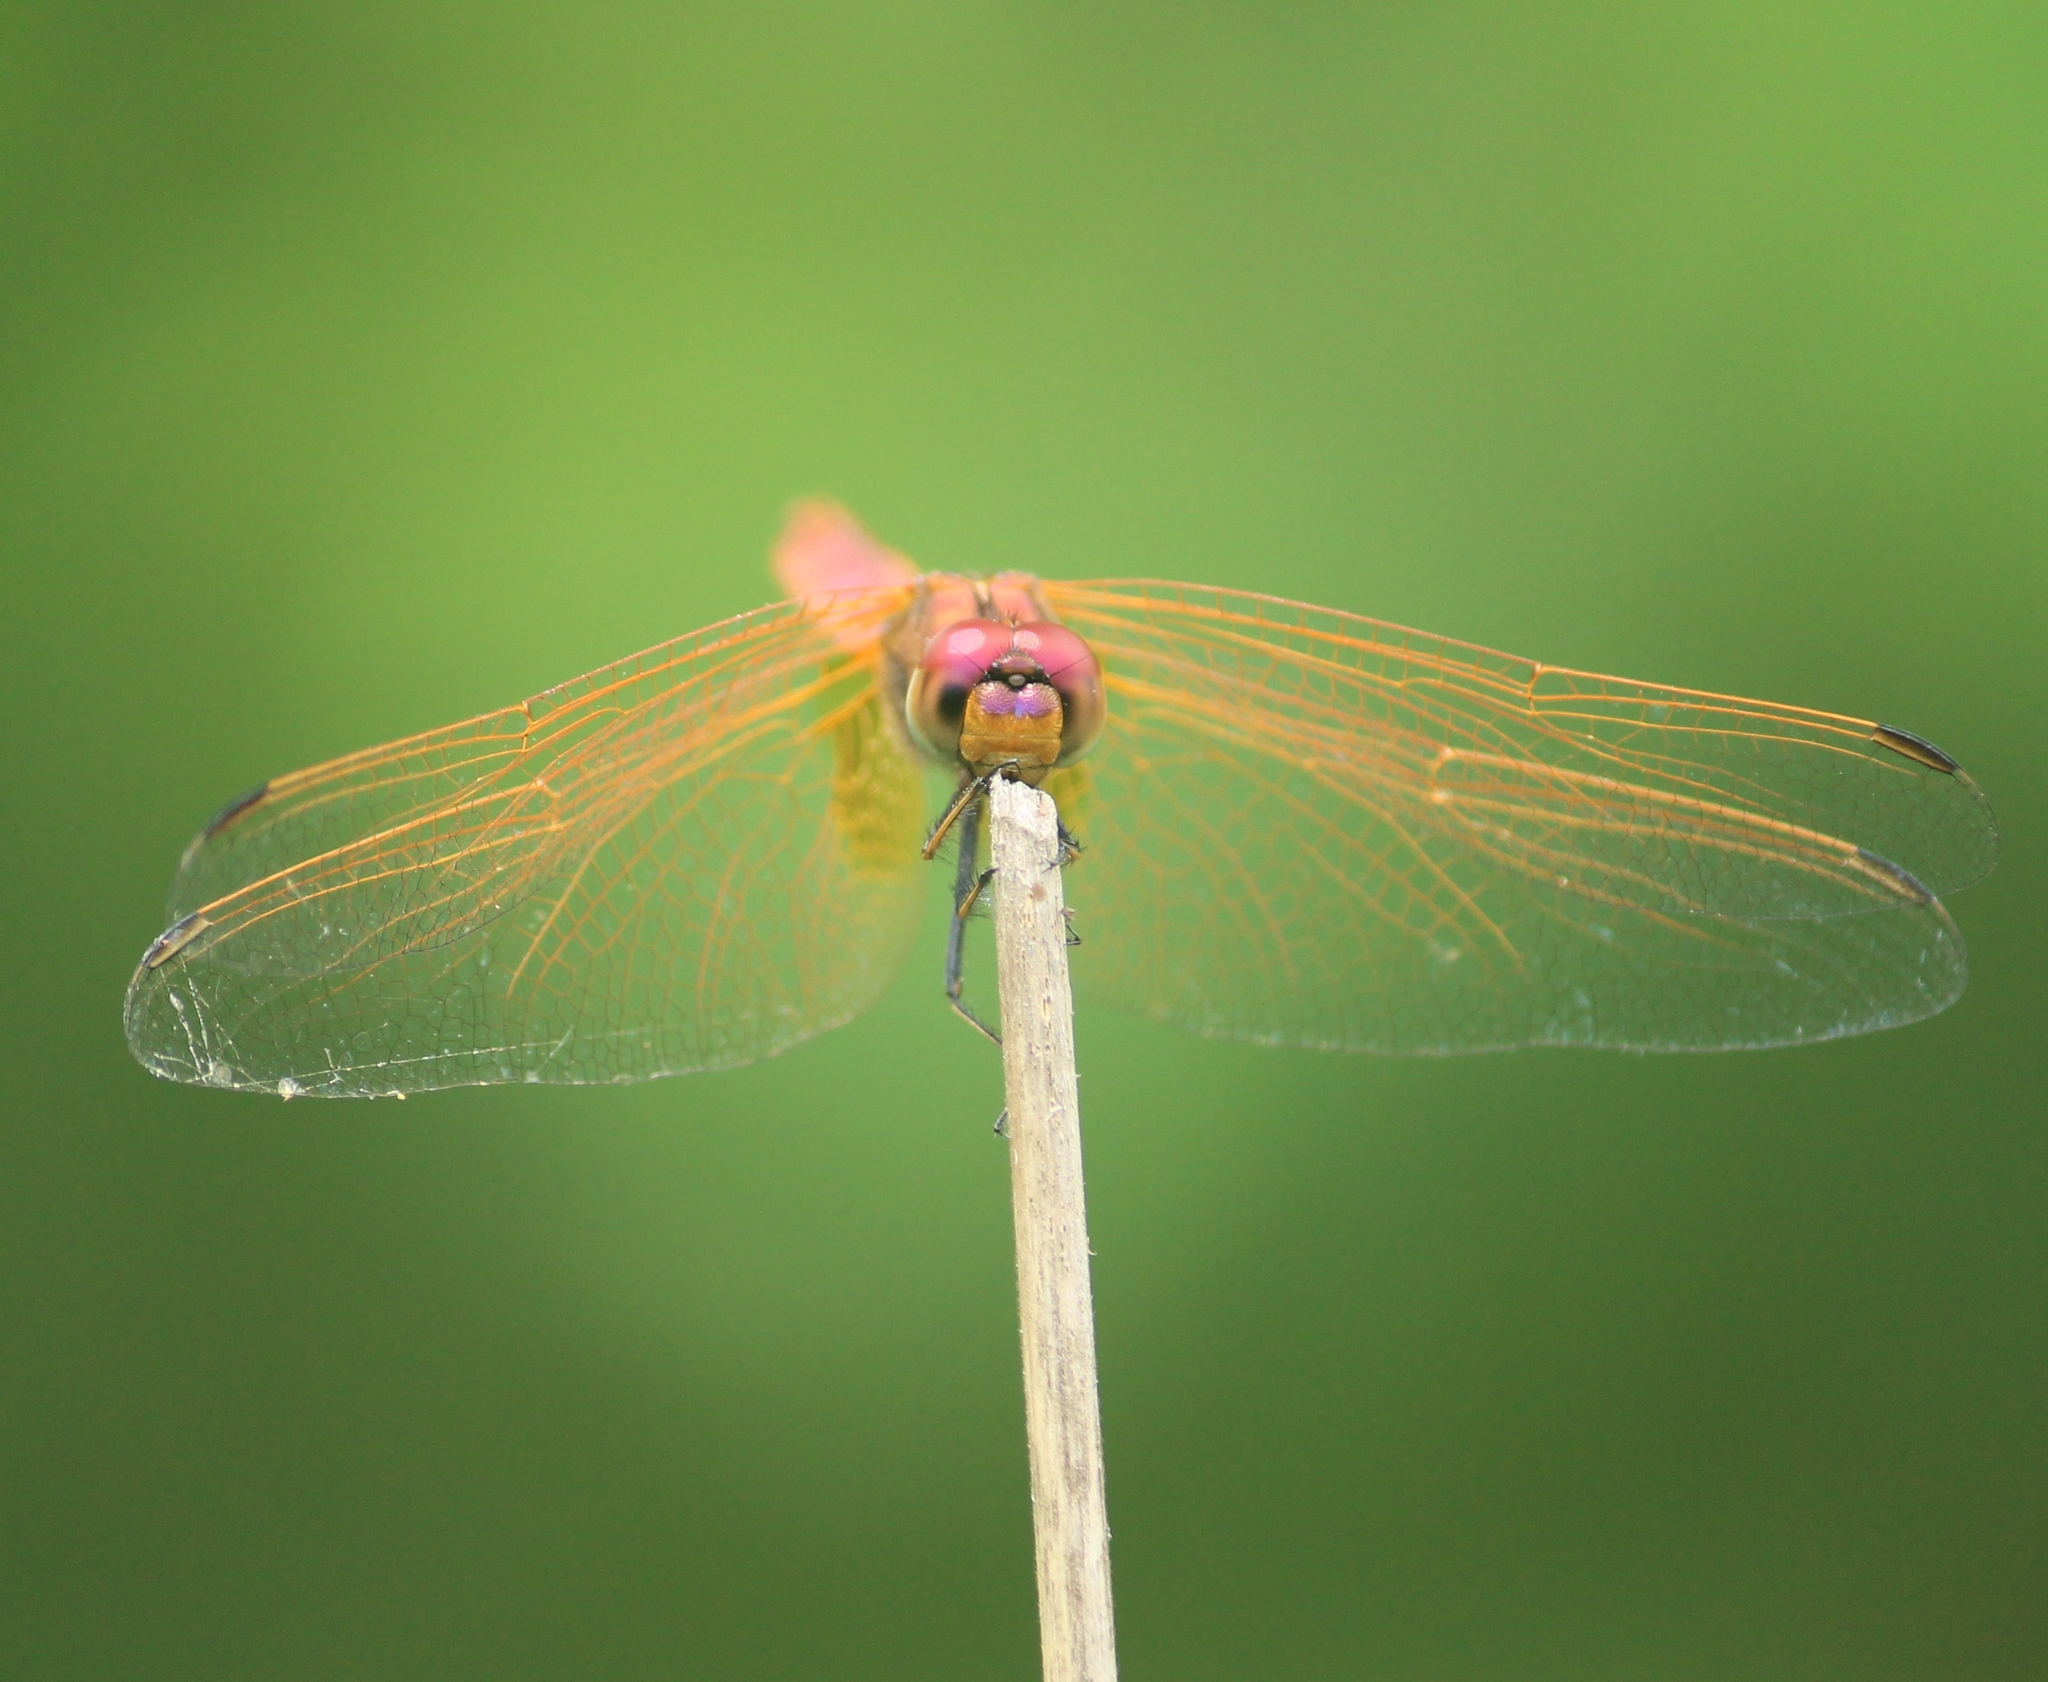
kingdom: Animalia
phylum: Arthropoda
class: Insecta
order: Odonata
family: Libellulidae
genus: Trithemis
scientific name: Trithemis aurora
